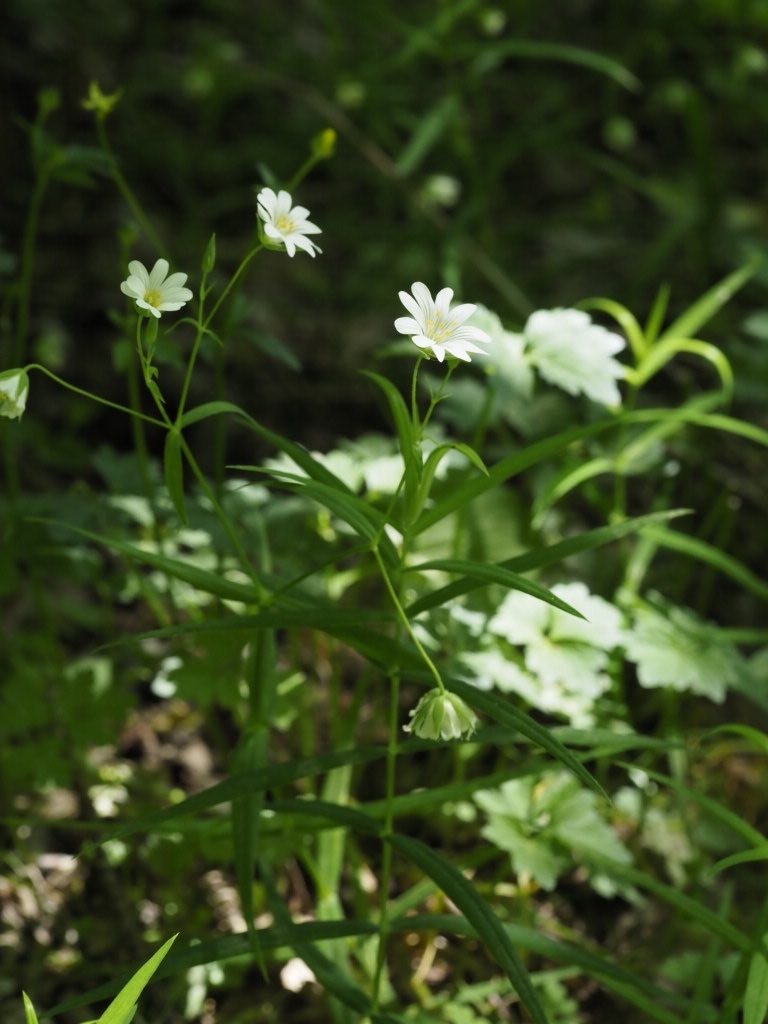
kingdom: Plantae
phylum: Tracheophyta
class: Magnoliopsida
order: Caryophyllales
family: Caryophyllaceae
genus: Rabelera
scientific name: Rabelera holostea
